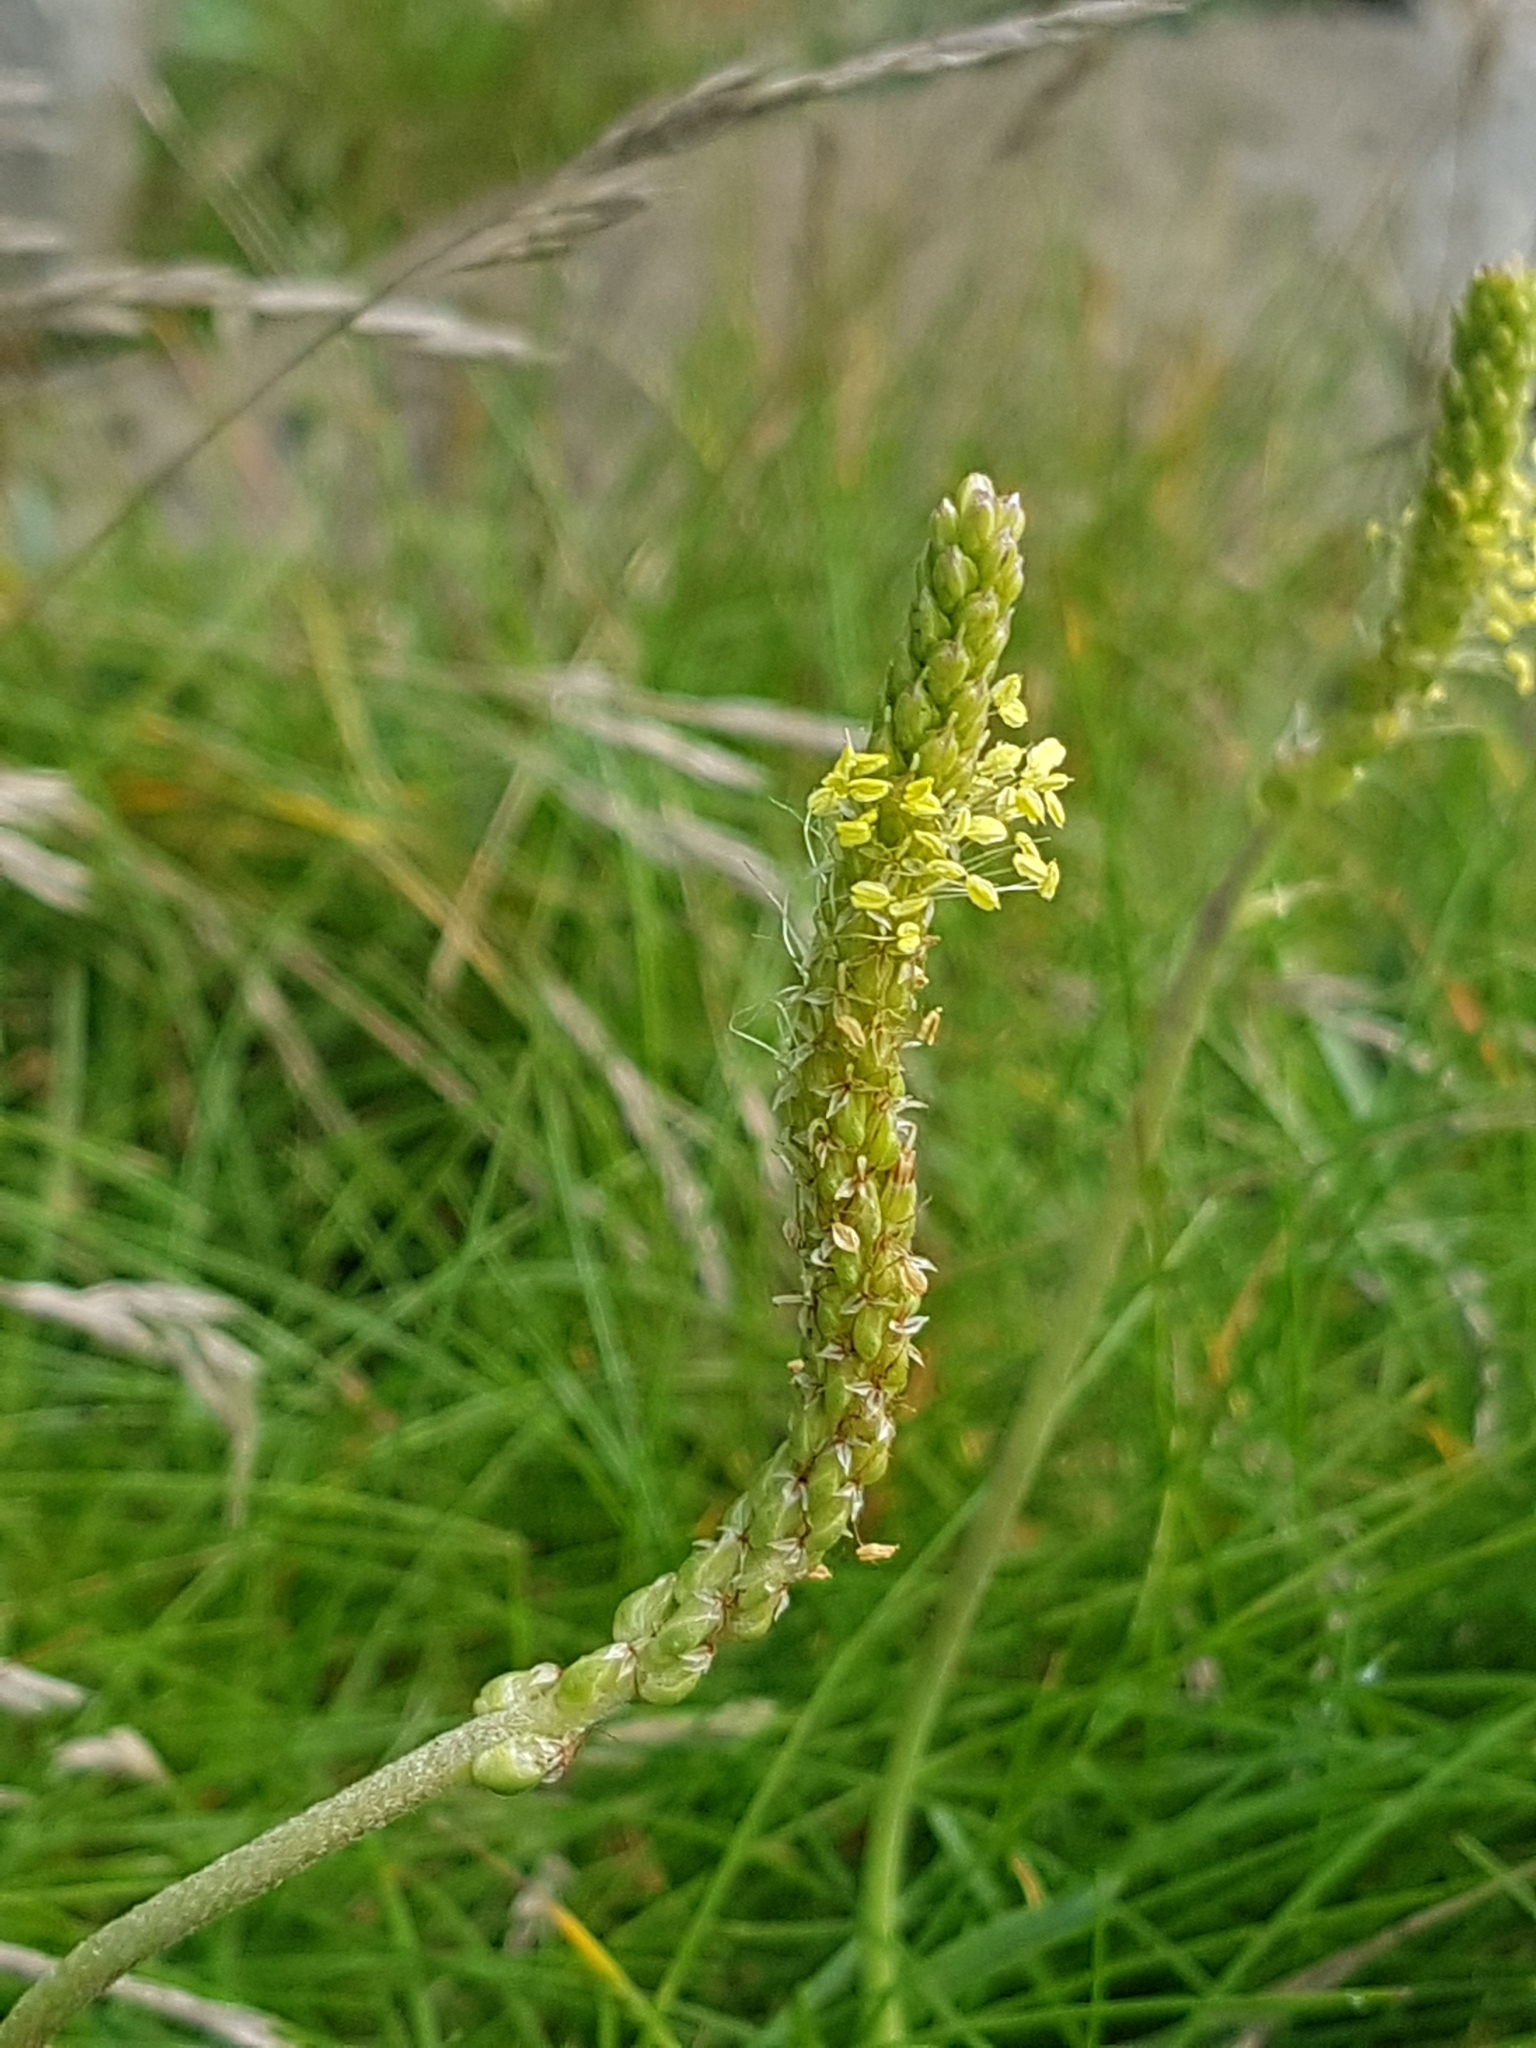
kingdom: Plantae
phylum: Tracheophyta
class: Magnoliopsida
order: Lamiales
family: Plantaginaceae
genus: Plantago
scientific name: Plantago maritima
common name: Sea plantain
